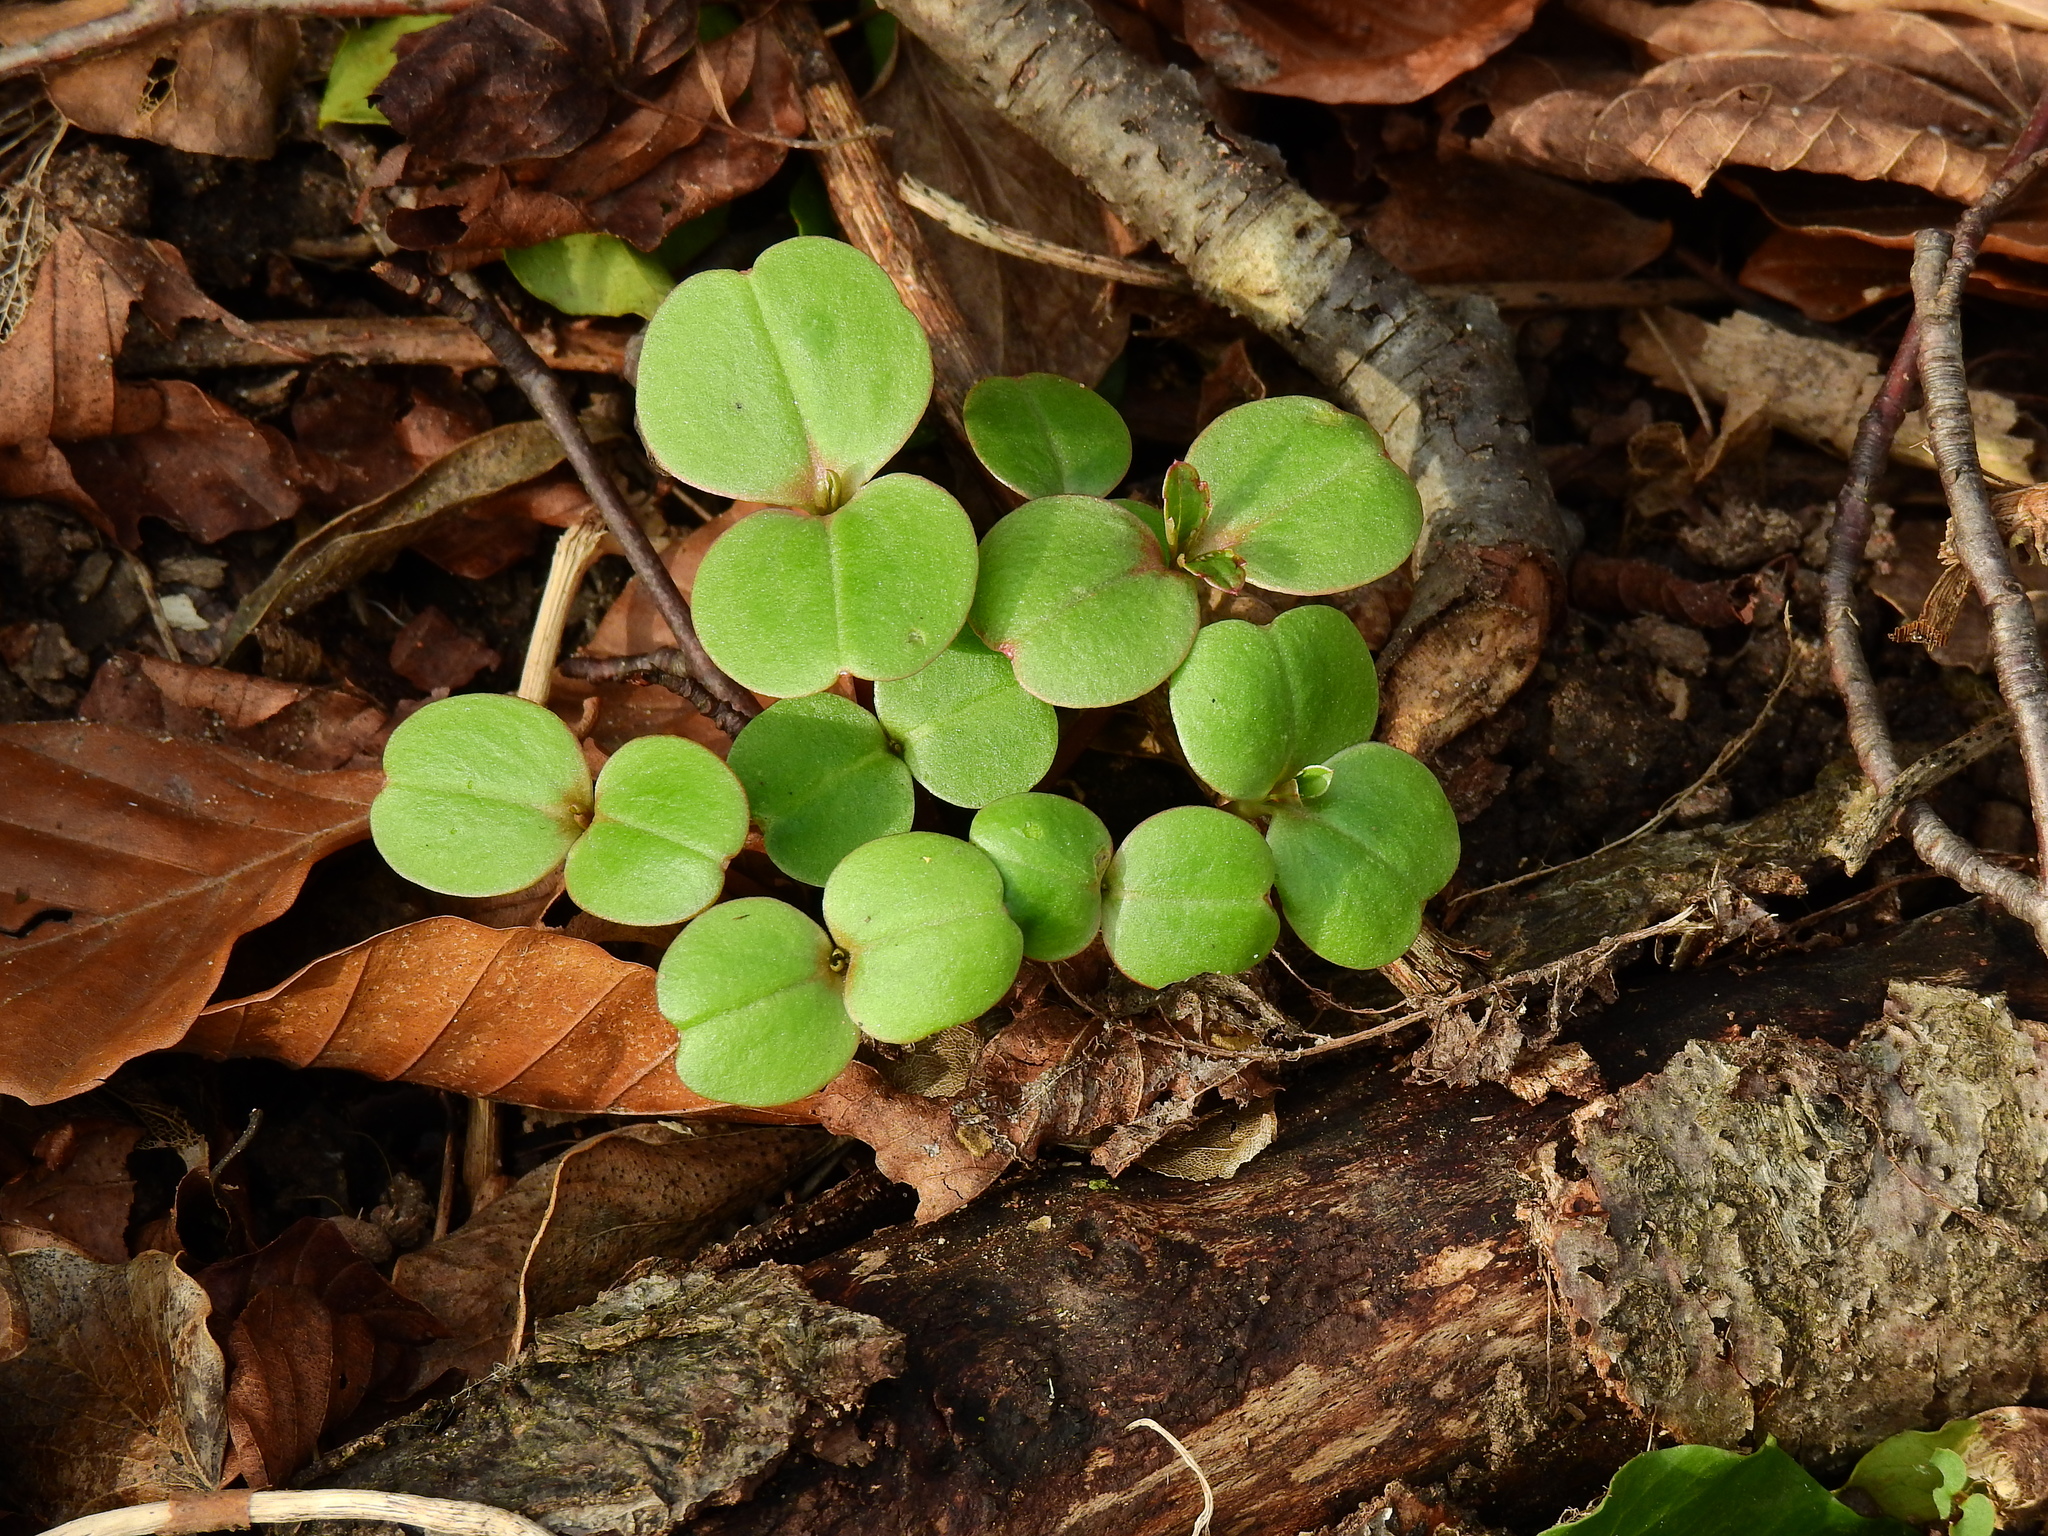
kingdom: Plantae
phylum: Tracheophyta
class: Magnoliopsida
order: Ericales
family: Balsaminaceae
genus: Impatiens
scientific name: Impatiens glandulifera
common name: Himalayan balsam
